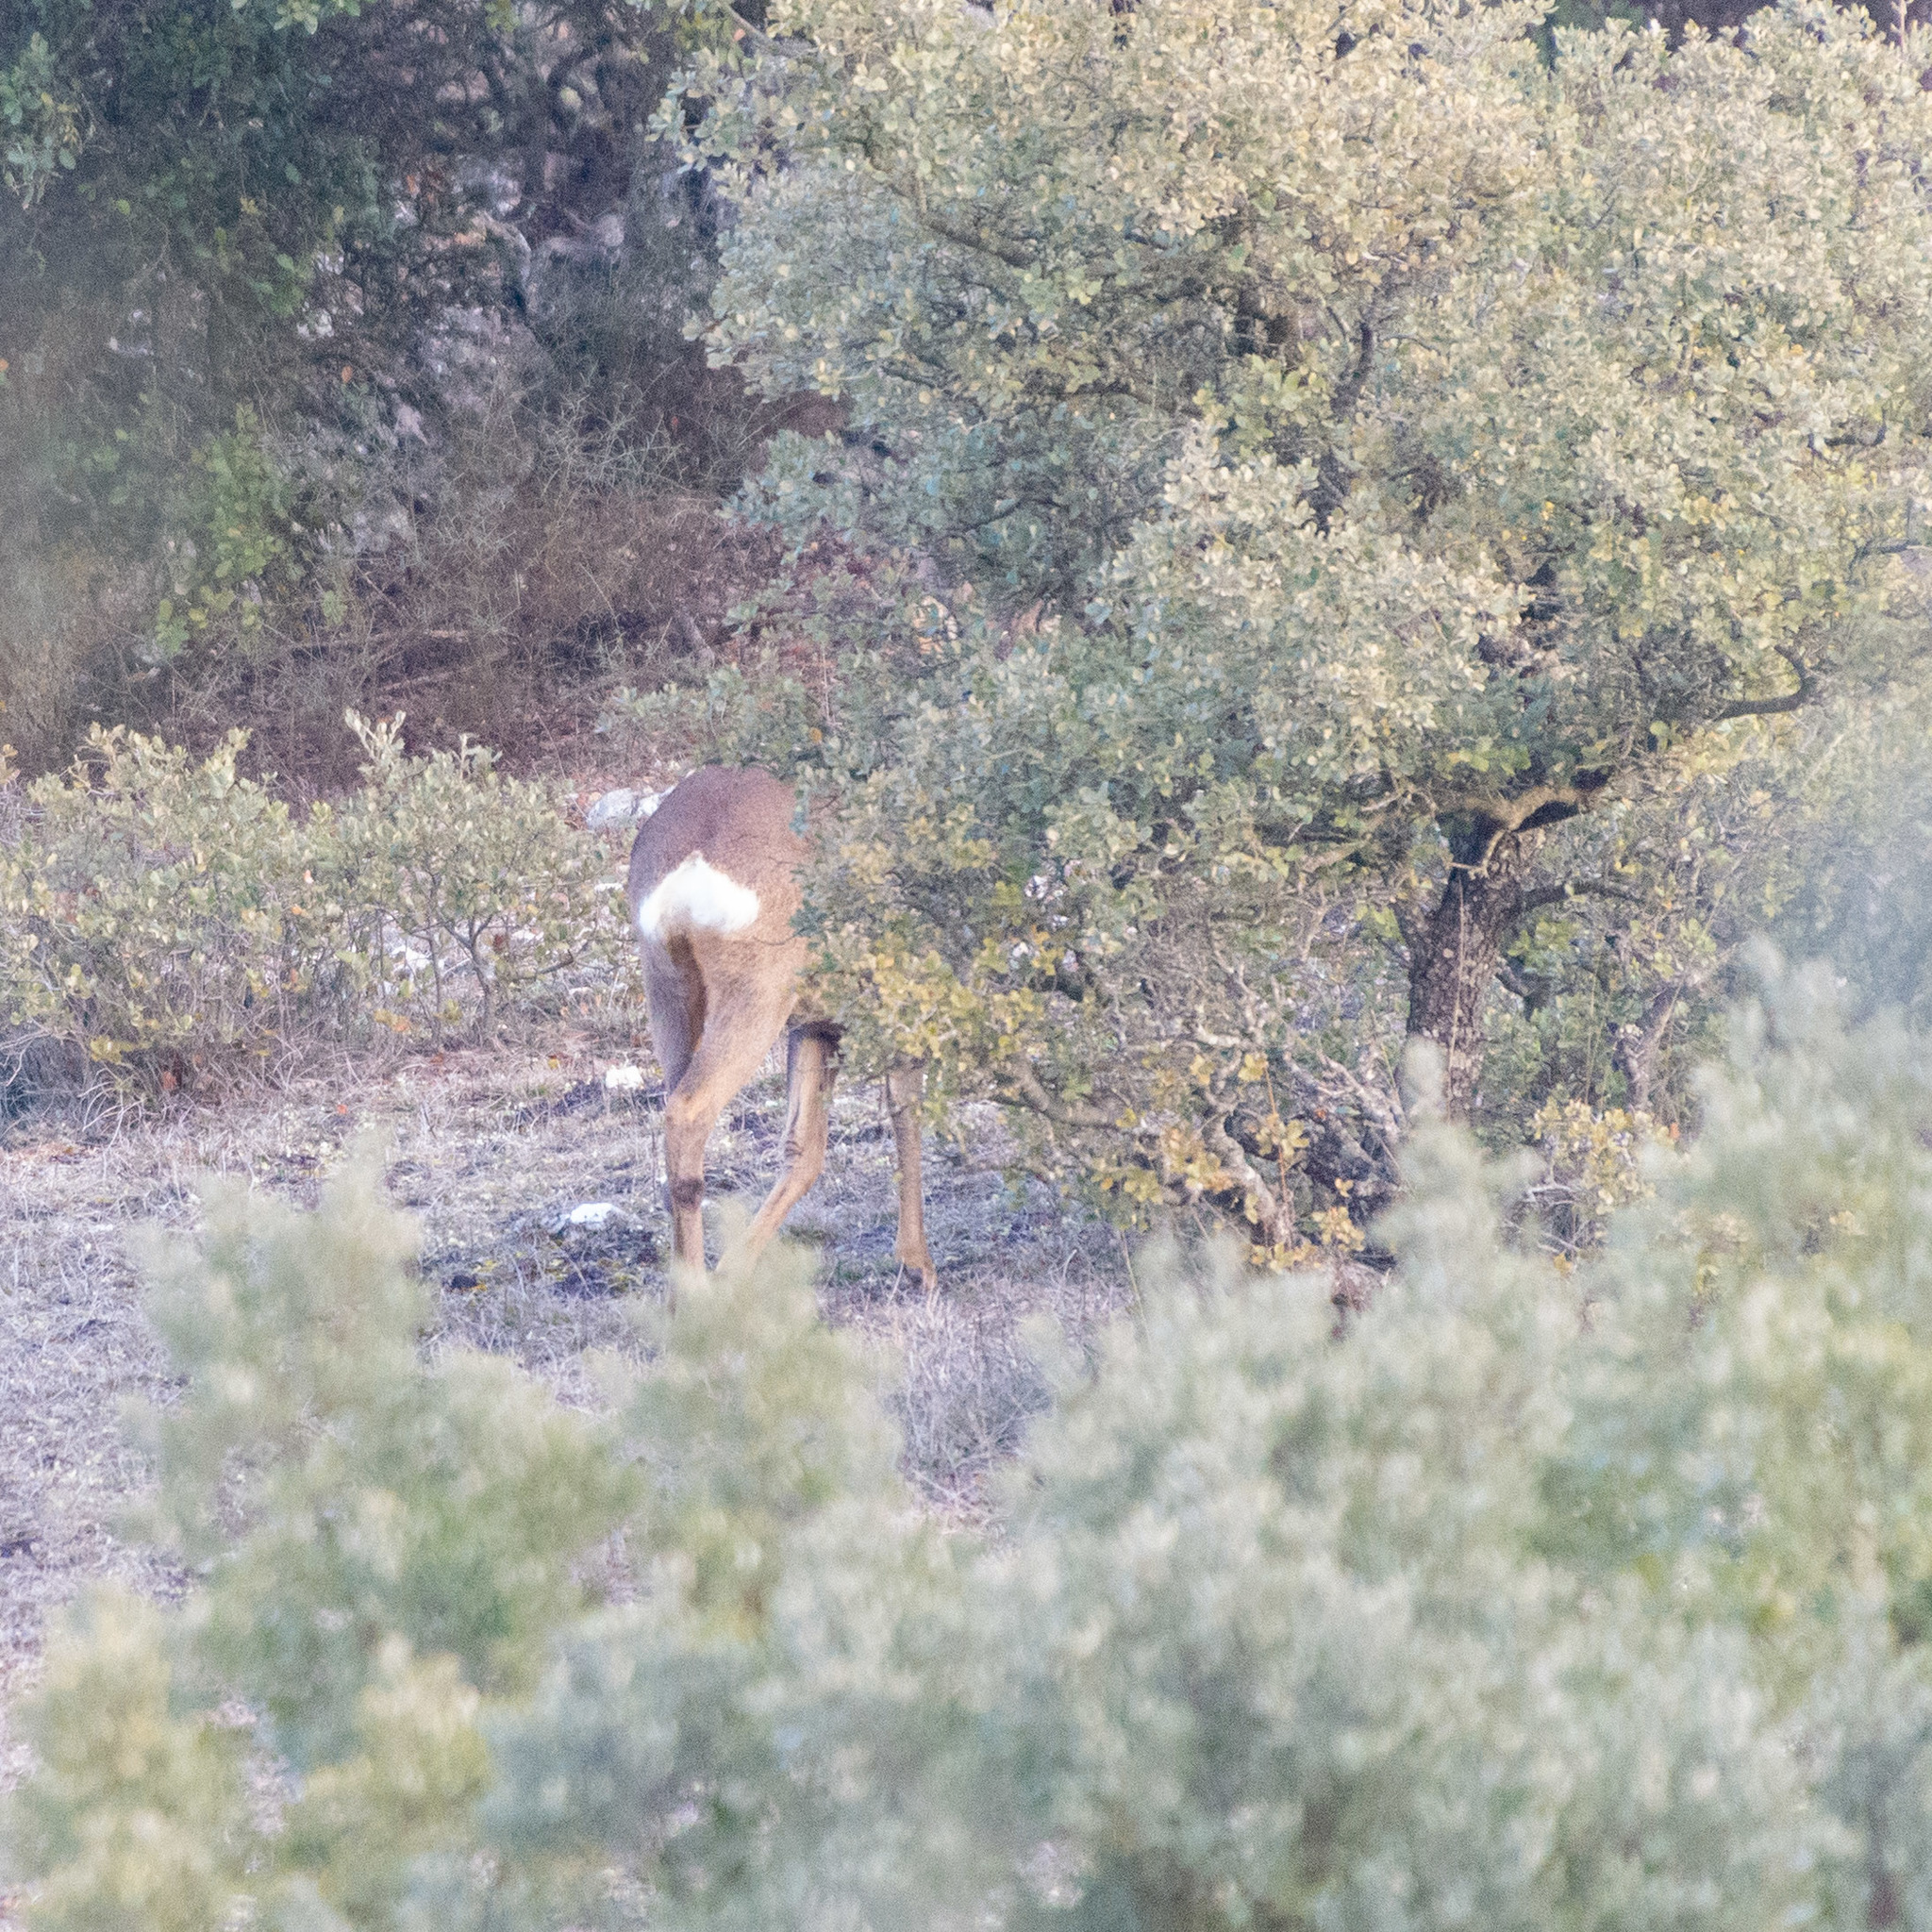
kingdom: Animalia
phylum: Chordata
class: Mammalia
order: Artiodactyla
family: Cervidae
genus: Capreolus
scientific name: Capreolus capreolus
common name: Western roe deer
